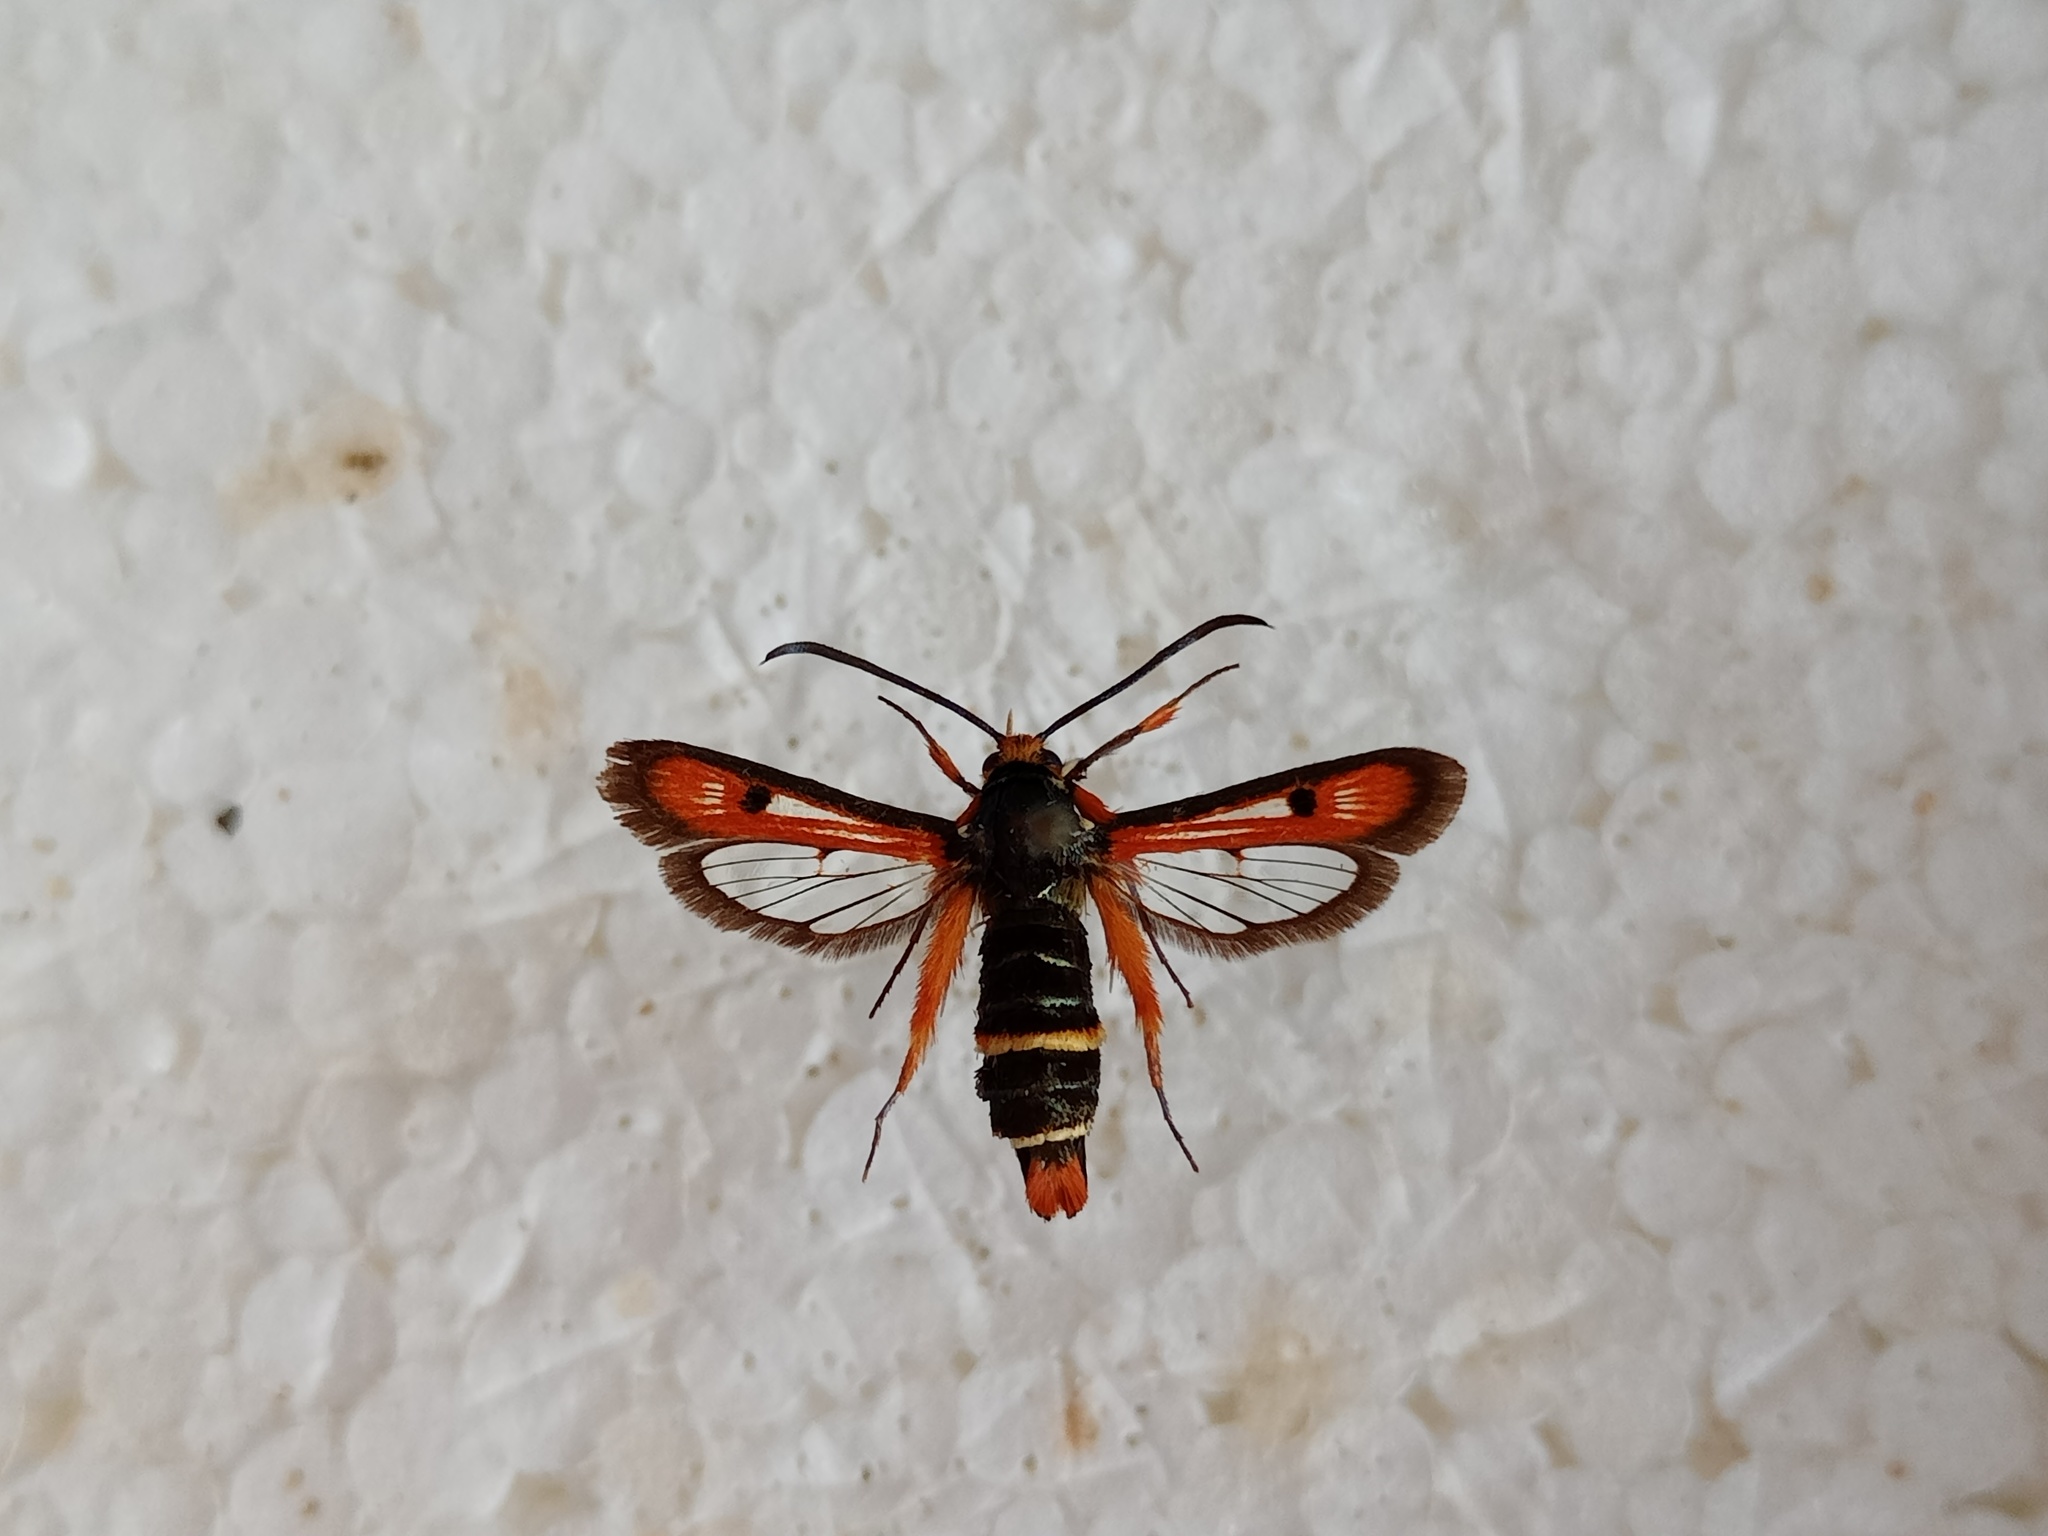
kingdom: Animalia
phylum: Arthropoda
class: Insecta
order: Lepidoptera
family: Sesiidae
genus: Pyropteron
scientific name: Pyropteron chrysidiforme
